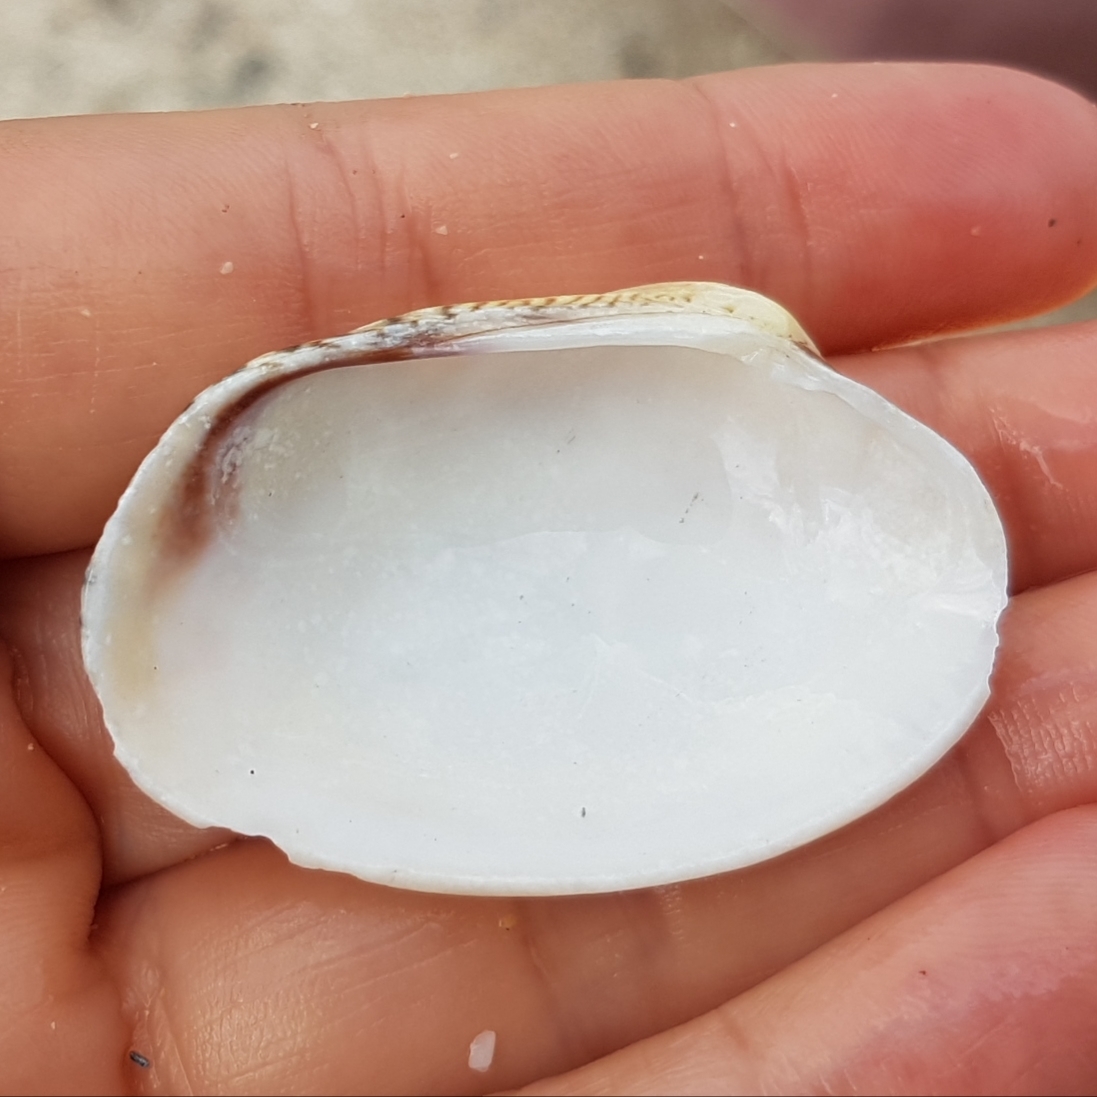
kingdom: Animalia
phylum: Mollusca
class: Bivalvia
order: Venerida
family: Veneridae
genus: Venerupis
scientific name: Venerupis corrugata
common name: Pullet carpet shell
